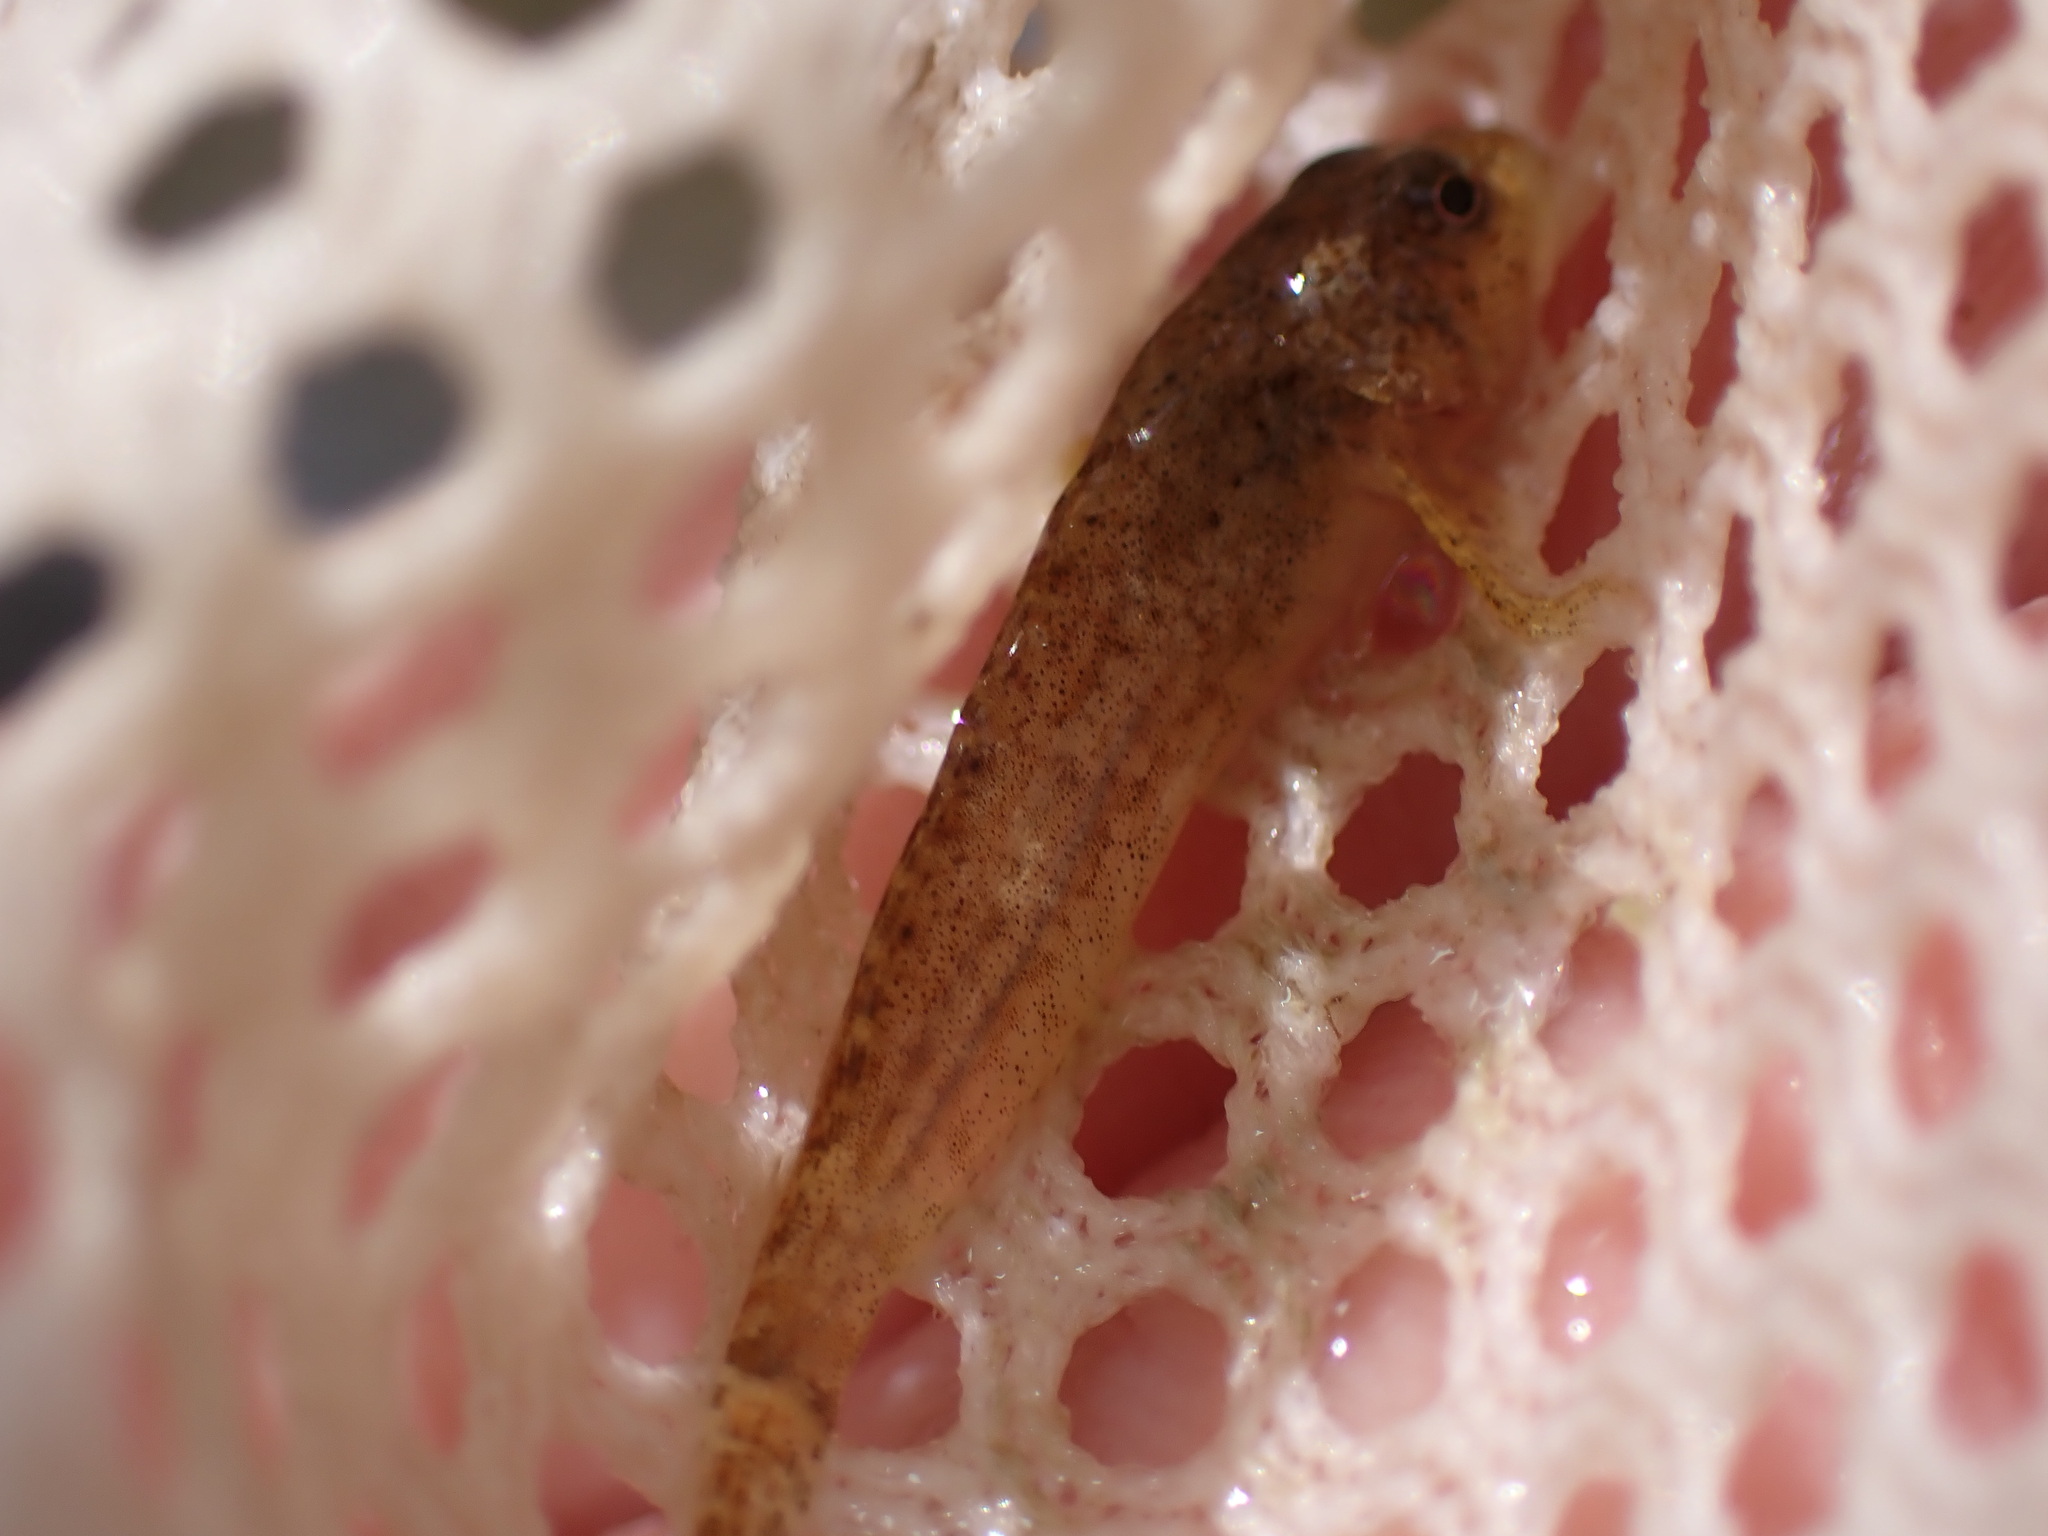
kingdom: Animalia
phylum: Chordata
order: Scorpaeniformes
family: Cottidae
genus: Cottus
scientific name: Cottus bairdii
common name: Mottled sculpin
